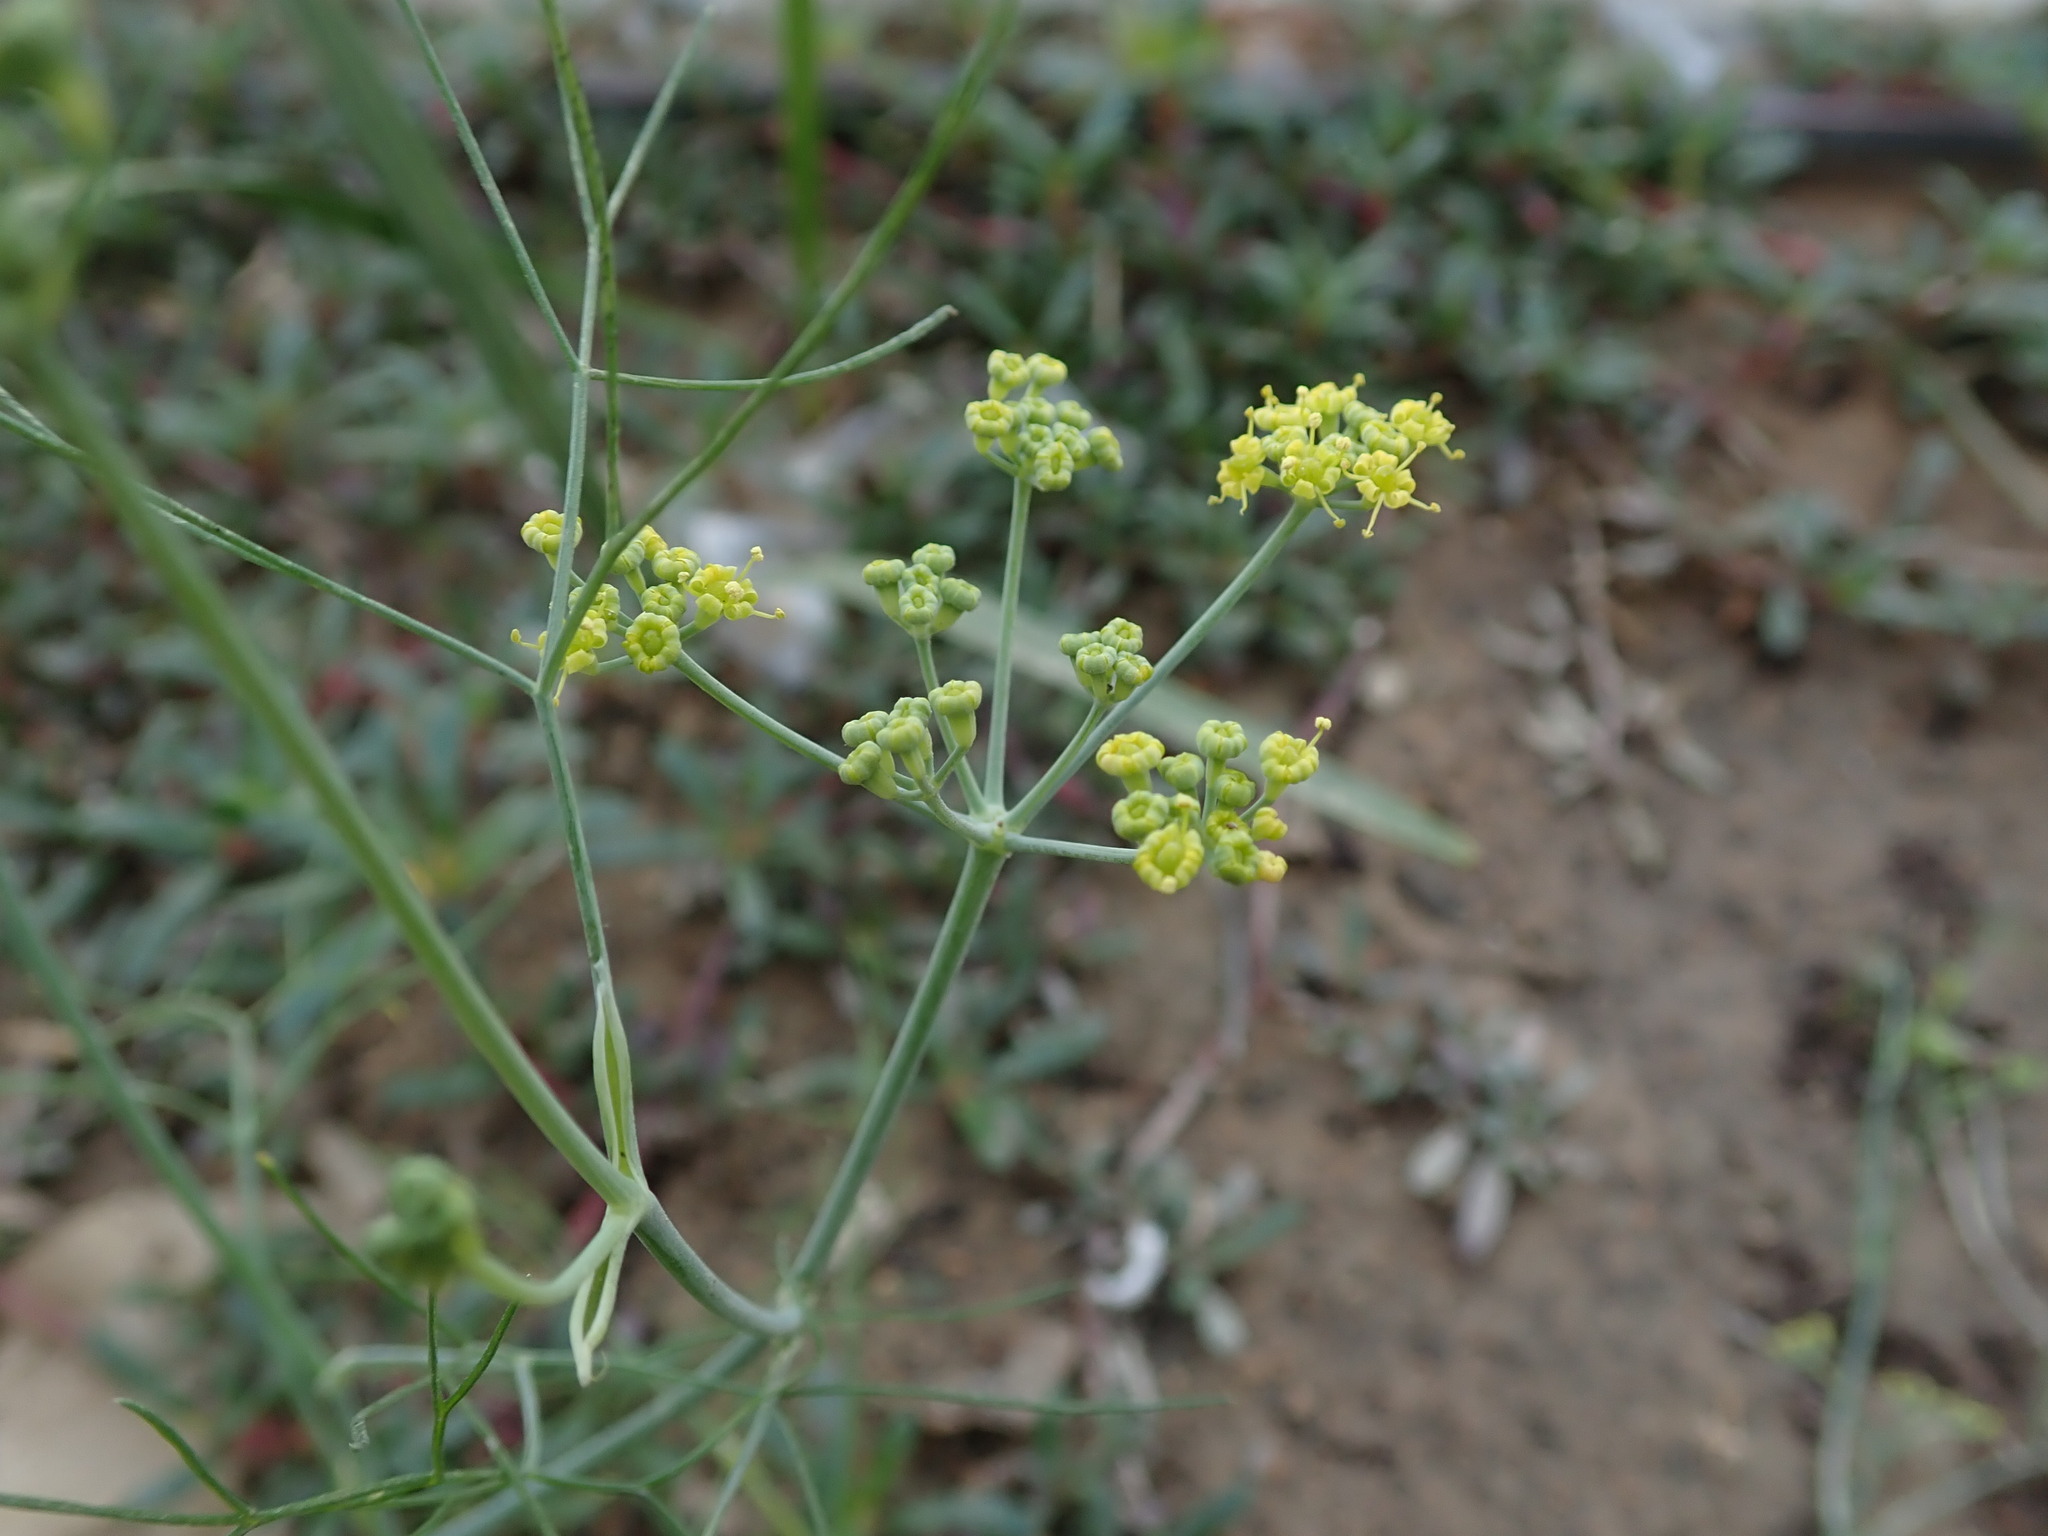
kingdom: Plantae
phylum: Tracheophyta
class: Magnoliopsida
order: Apiales
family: Apiaceae
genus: Foeniculum
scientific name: Foeniculum vulgare
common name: Fennel
